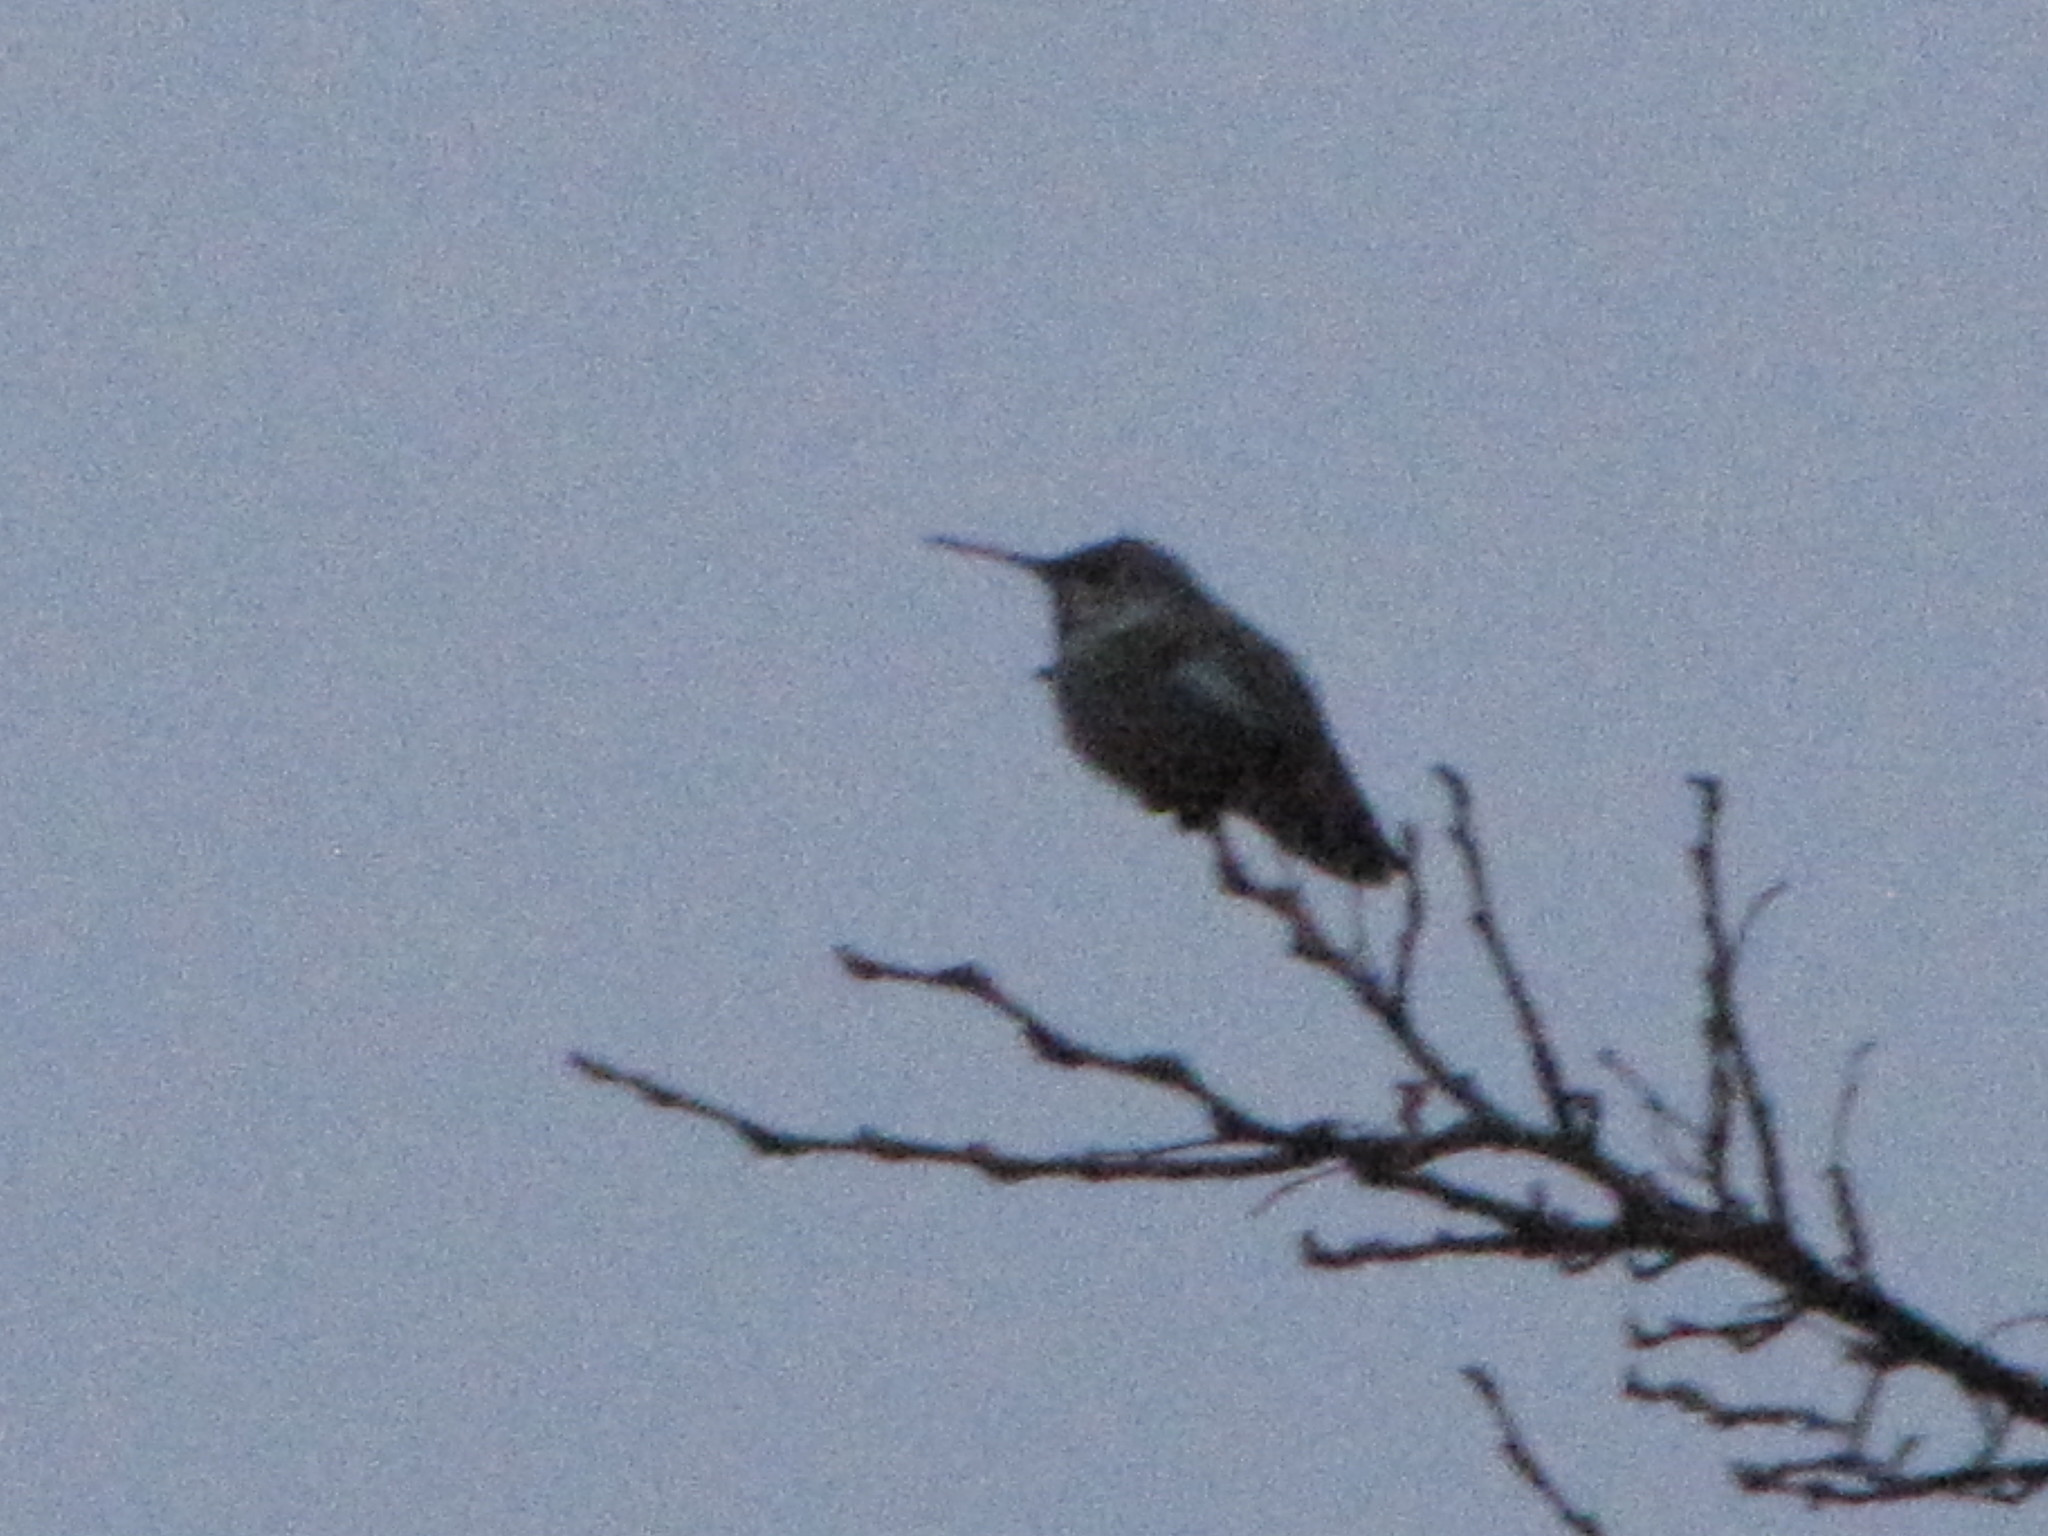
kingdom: Animalia
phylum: Chordata
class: Aves
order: Apodiformes
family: Trochilidae
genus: Calypte
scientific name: Calypte anna
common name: Anna's hummingbird
